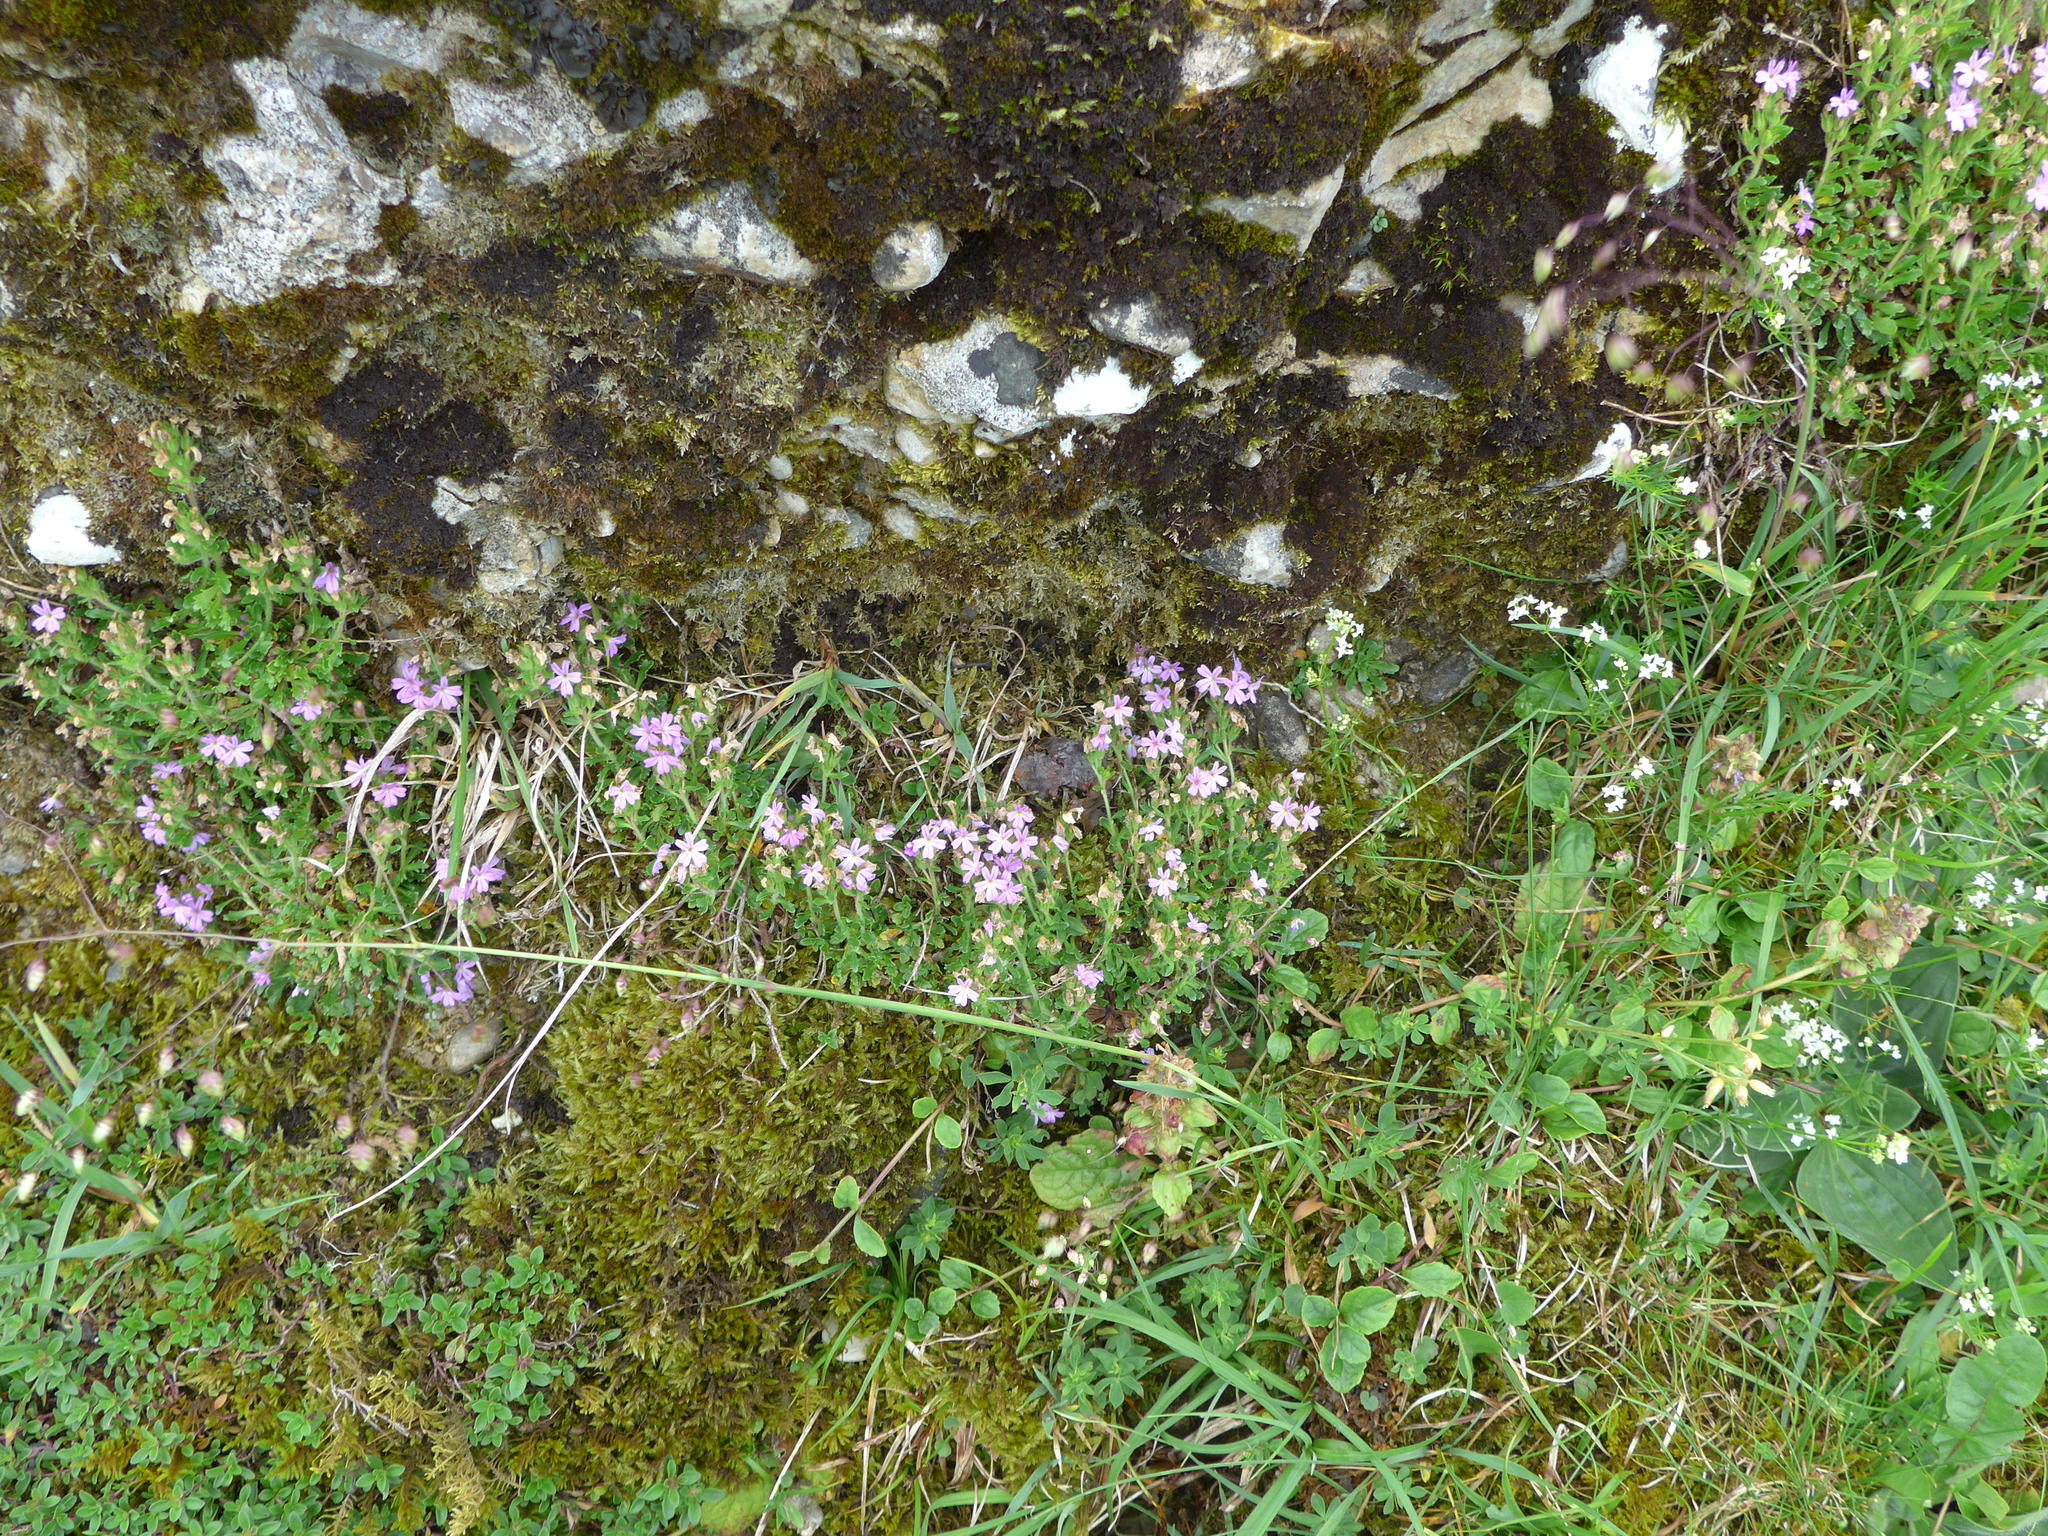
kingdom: Plantae
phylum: Tracheophyta
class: Magnoliopsida
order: Lamiales
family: Plantaginaceae
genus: Erinus
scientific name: Erinus alpinus
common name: Fairy foxglove
